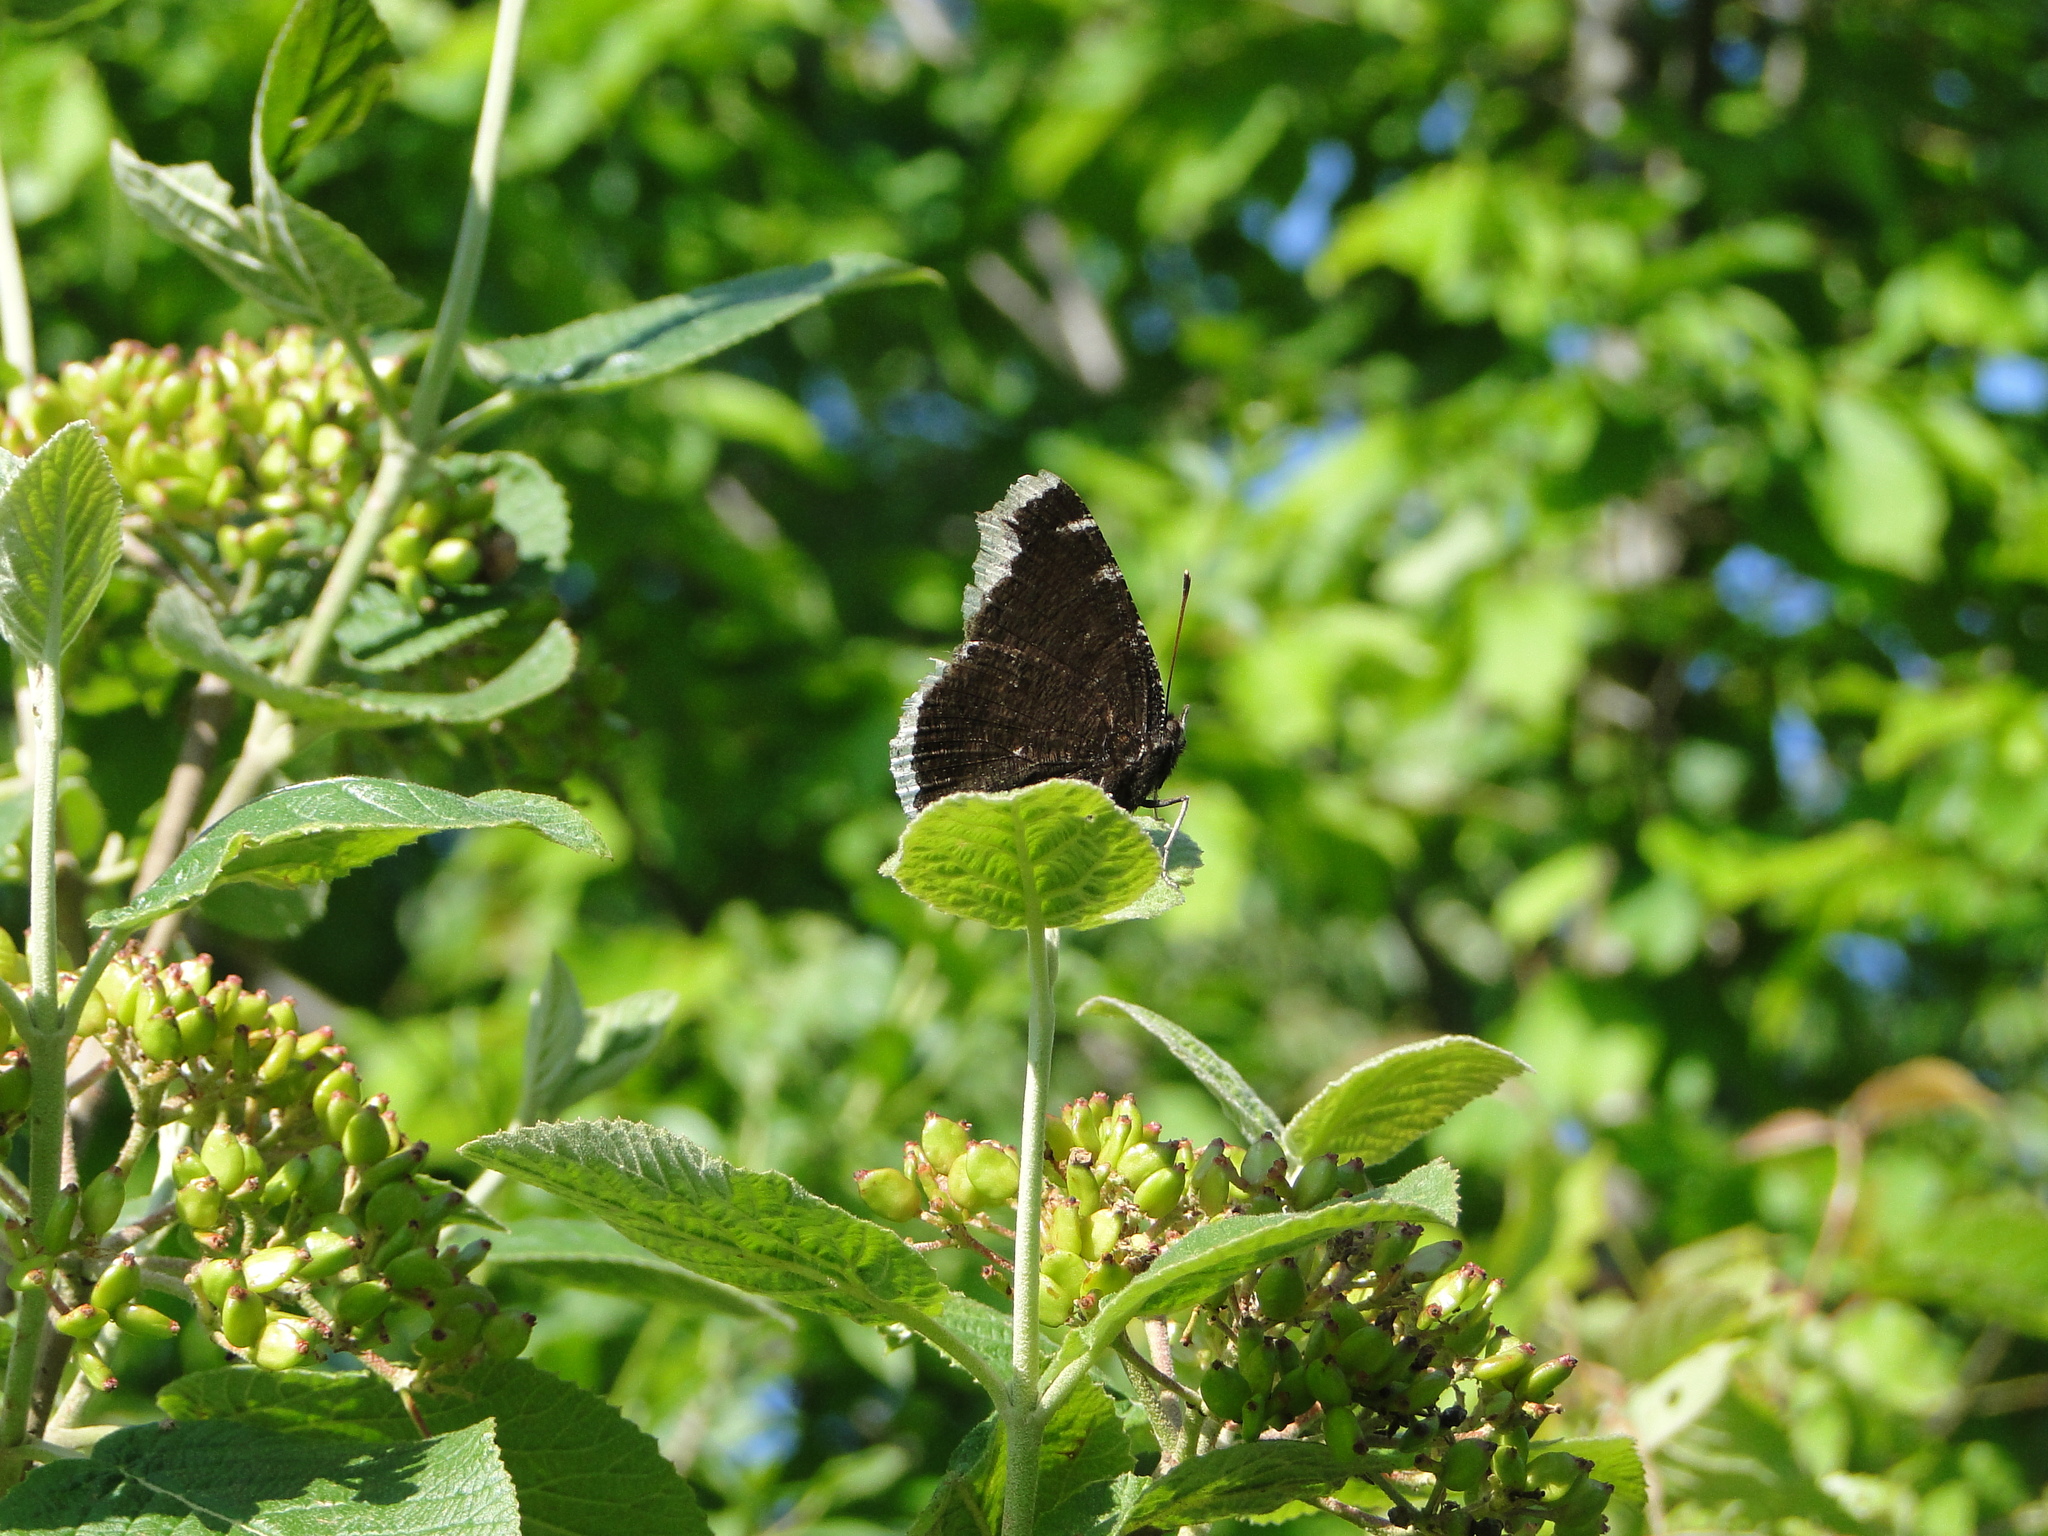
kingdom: Animalia
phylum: Arthropoda
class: Insecta
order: Lepidoptera
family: Nymphalidae
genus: Nymphalis
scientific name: Nymphalis antiopa
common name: Camberwell beauty
